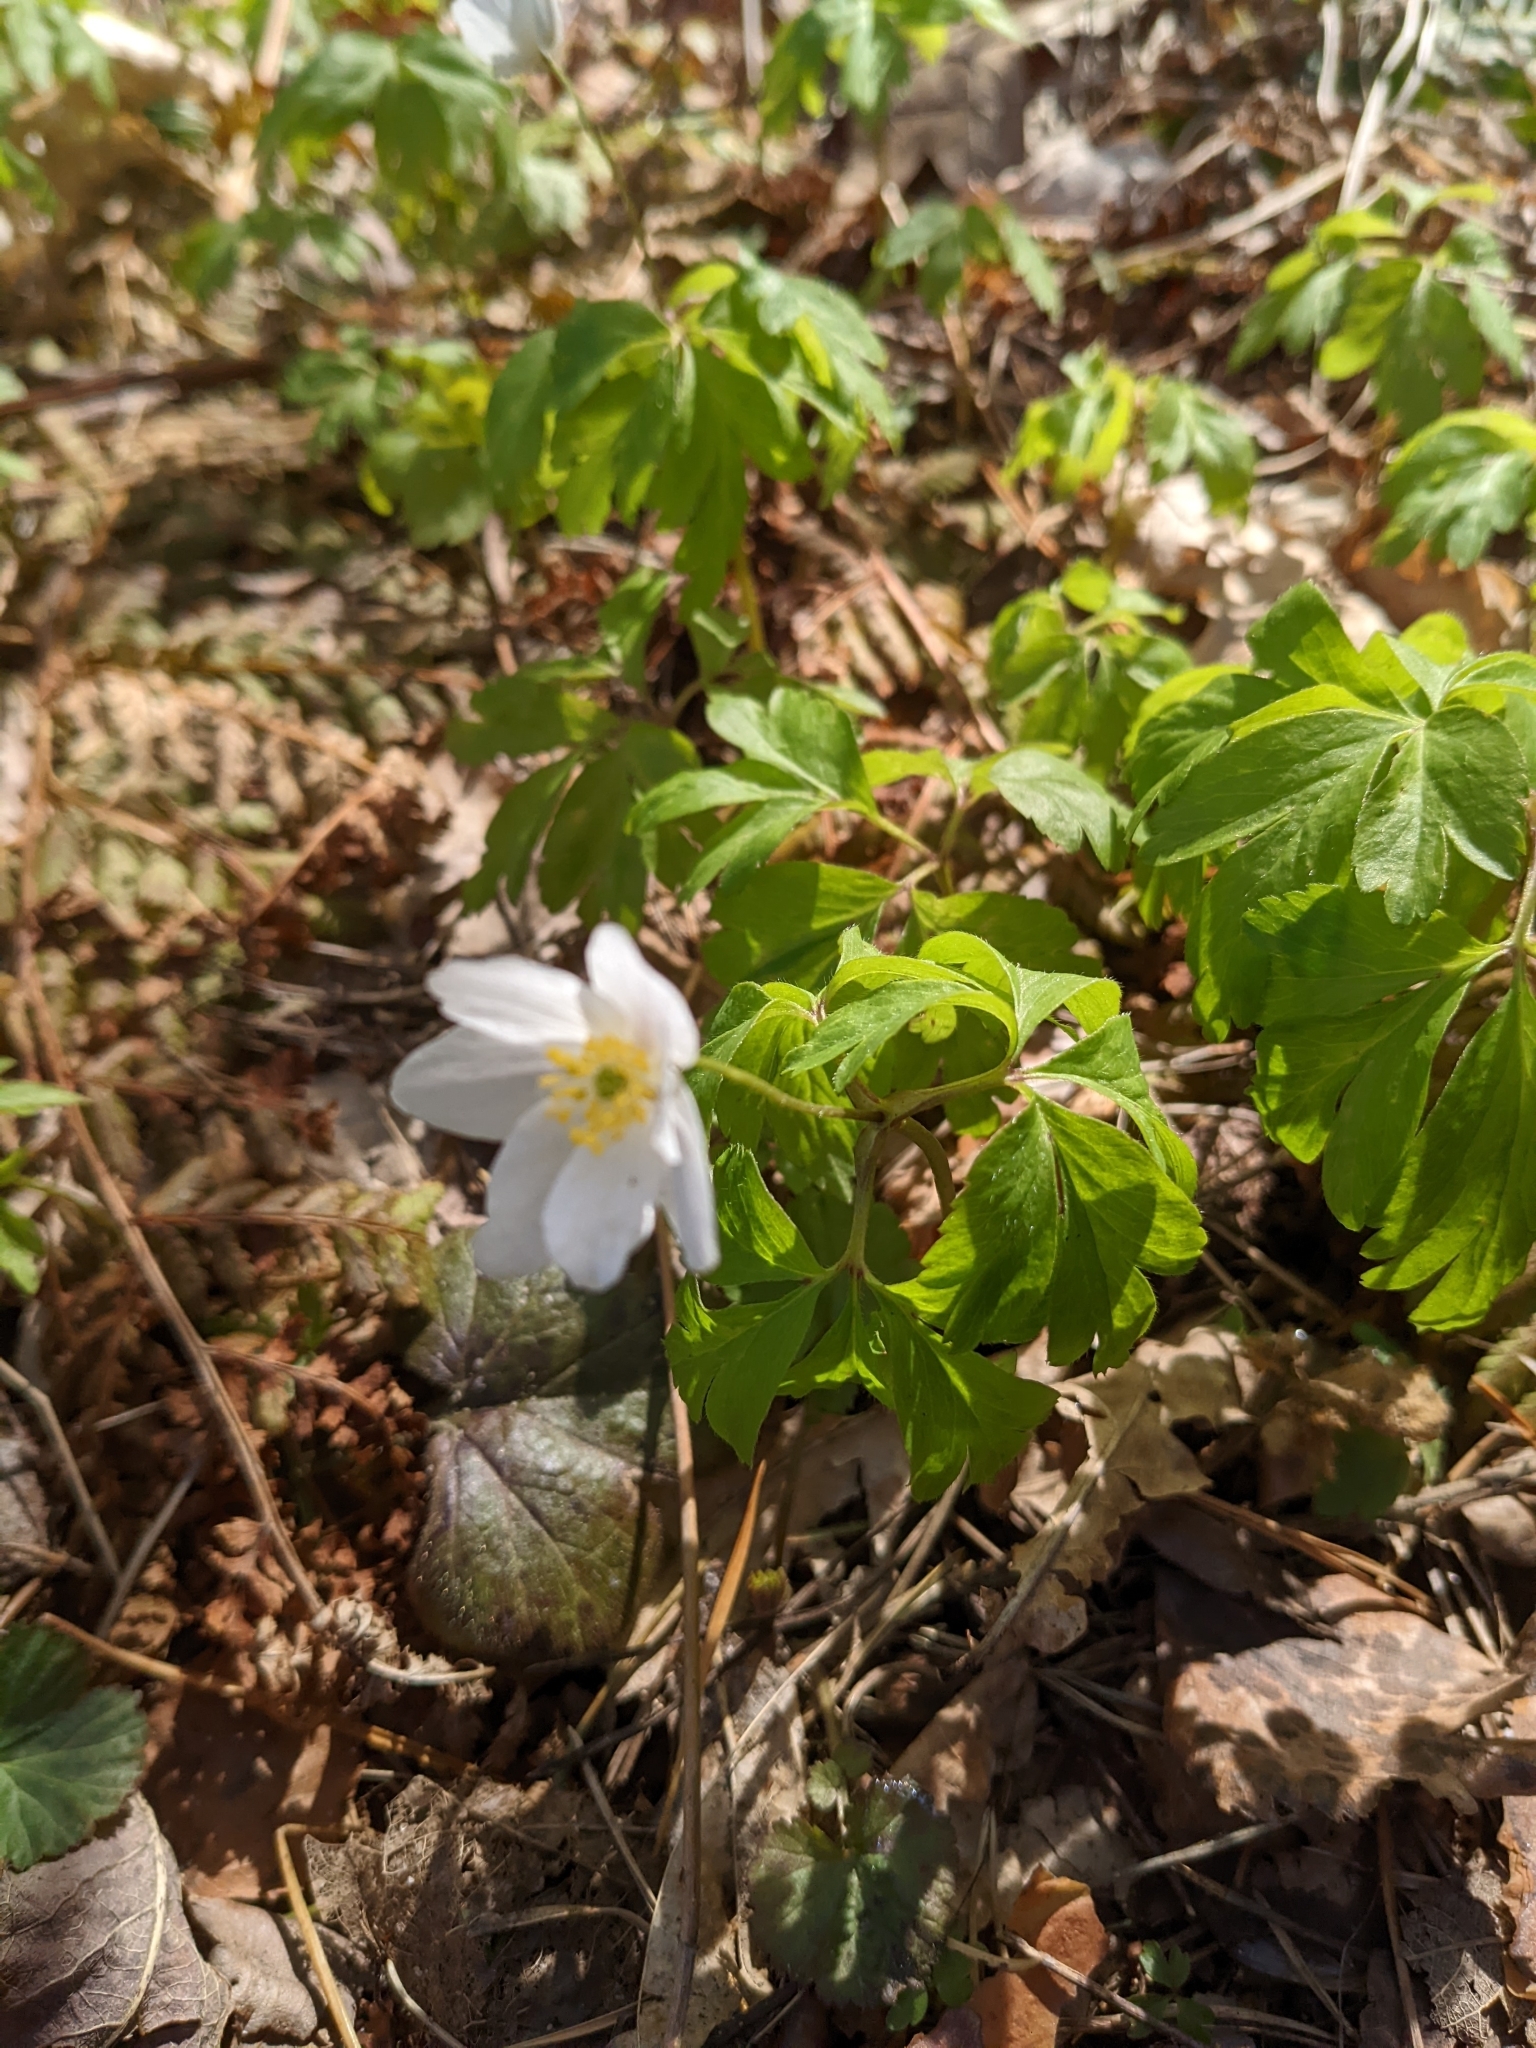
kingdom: Plantae
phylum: Tracheophyta
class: Magnoliopsida
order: Ranunculales
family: Ranunculaceae
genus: Anemone
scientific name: Anemone nemorosa
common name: Wood anemone
